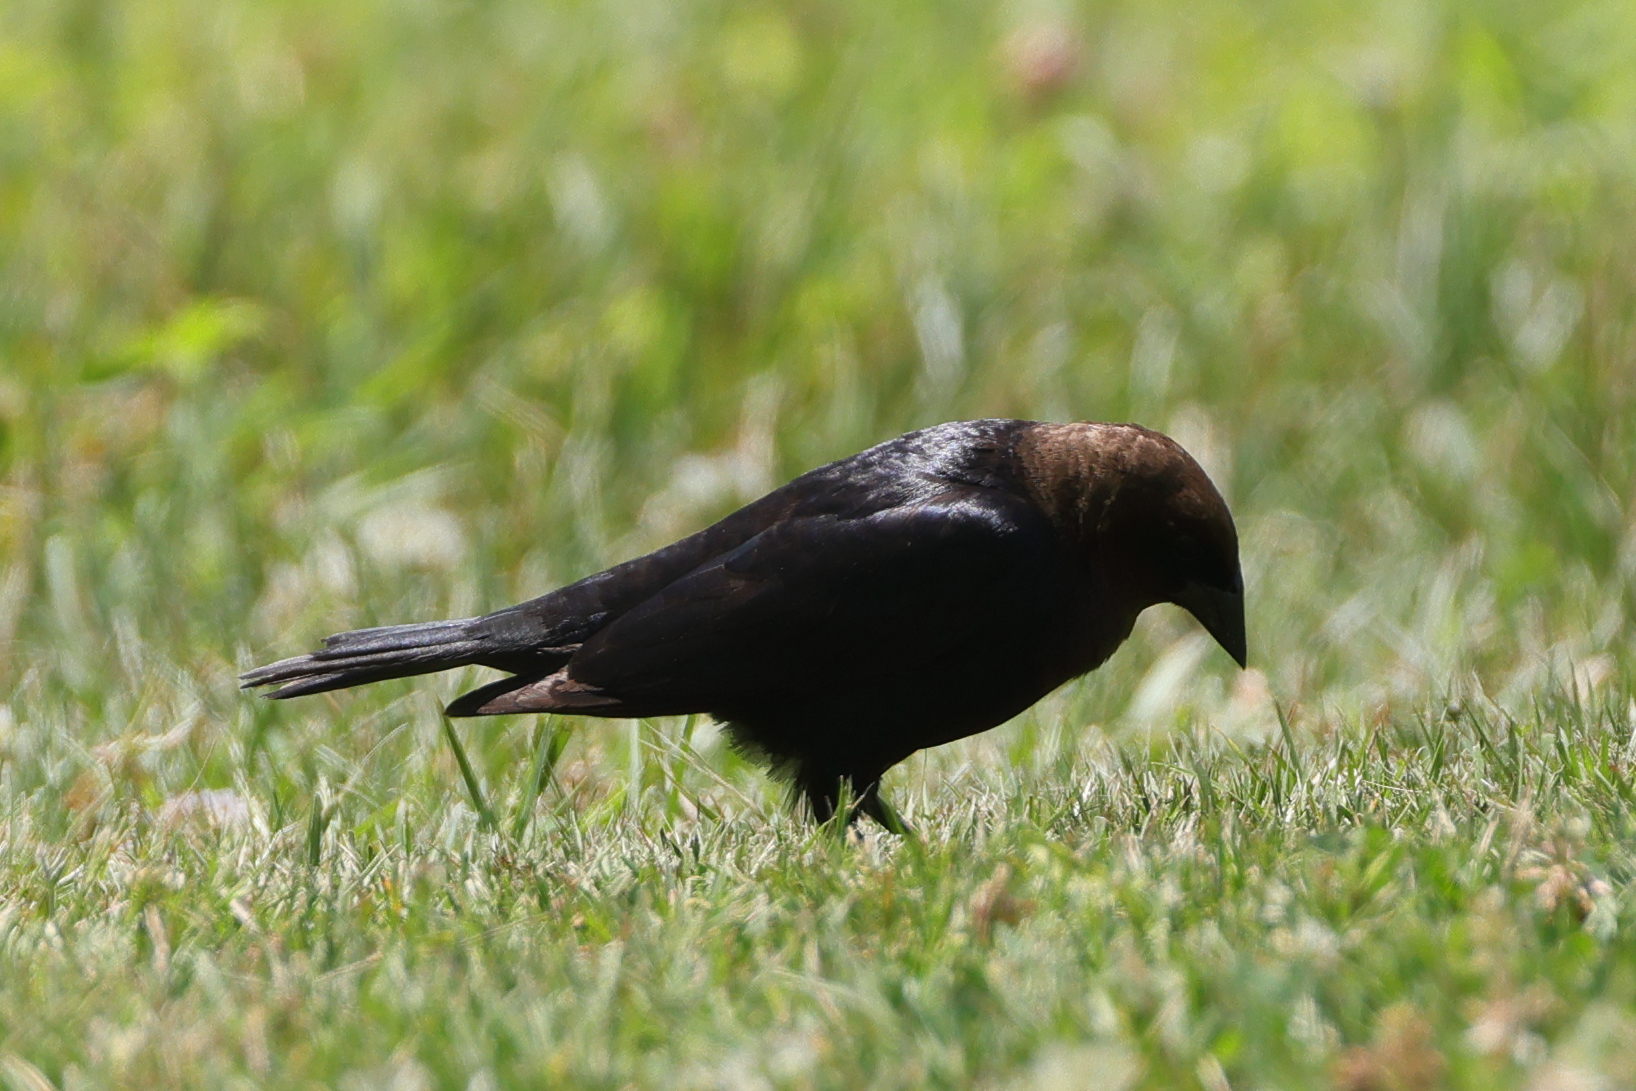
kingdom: Animalia
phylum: Chordata
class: Aves
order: Passeriformes
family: Icteridae
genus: Molothrus
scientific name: Molothrus ater
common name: Brown-headed cowbird
